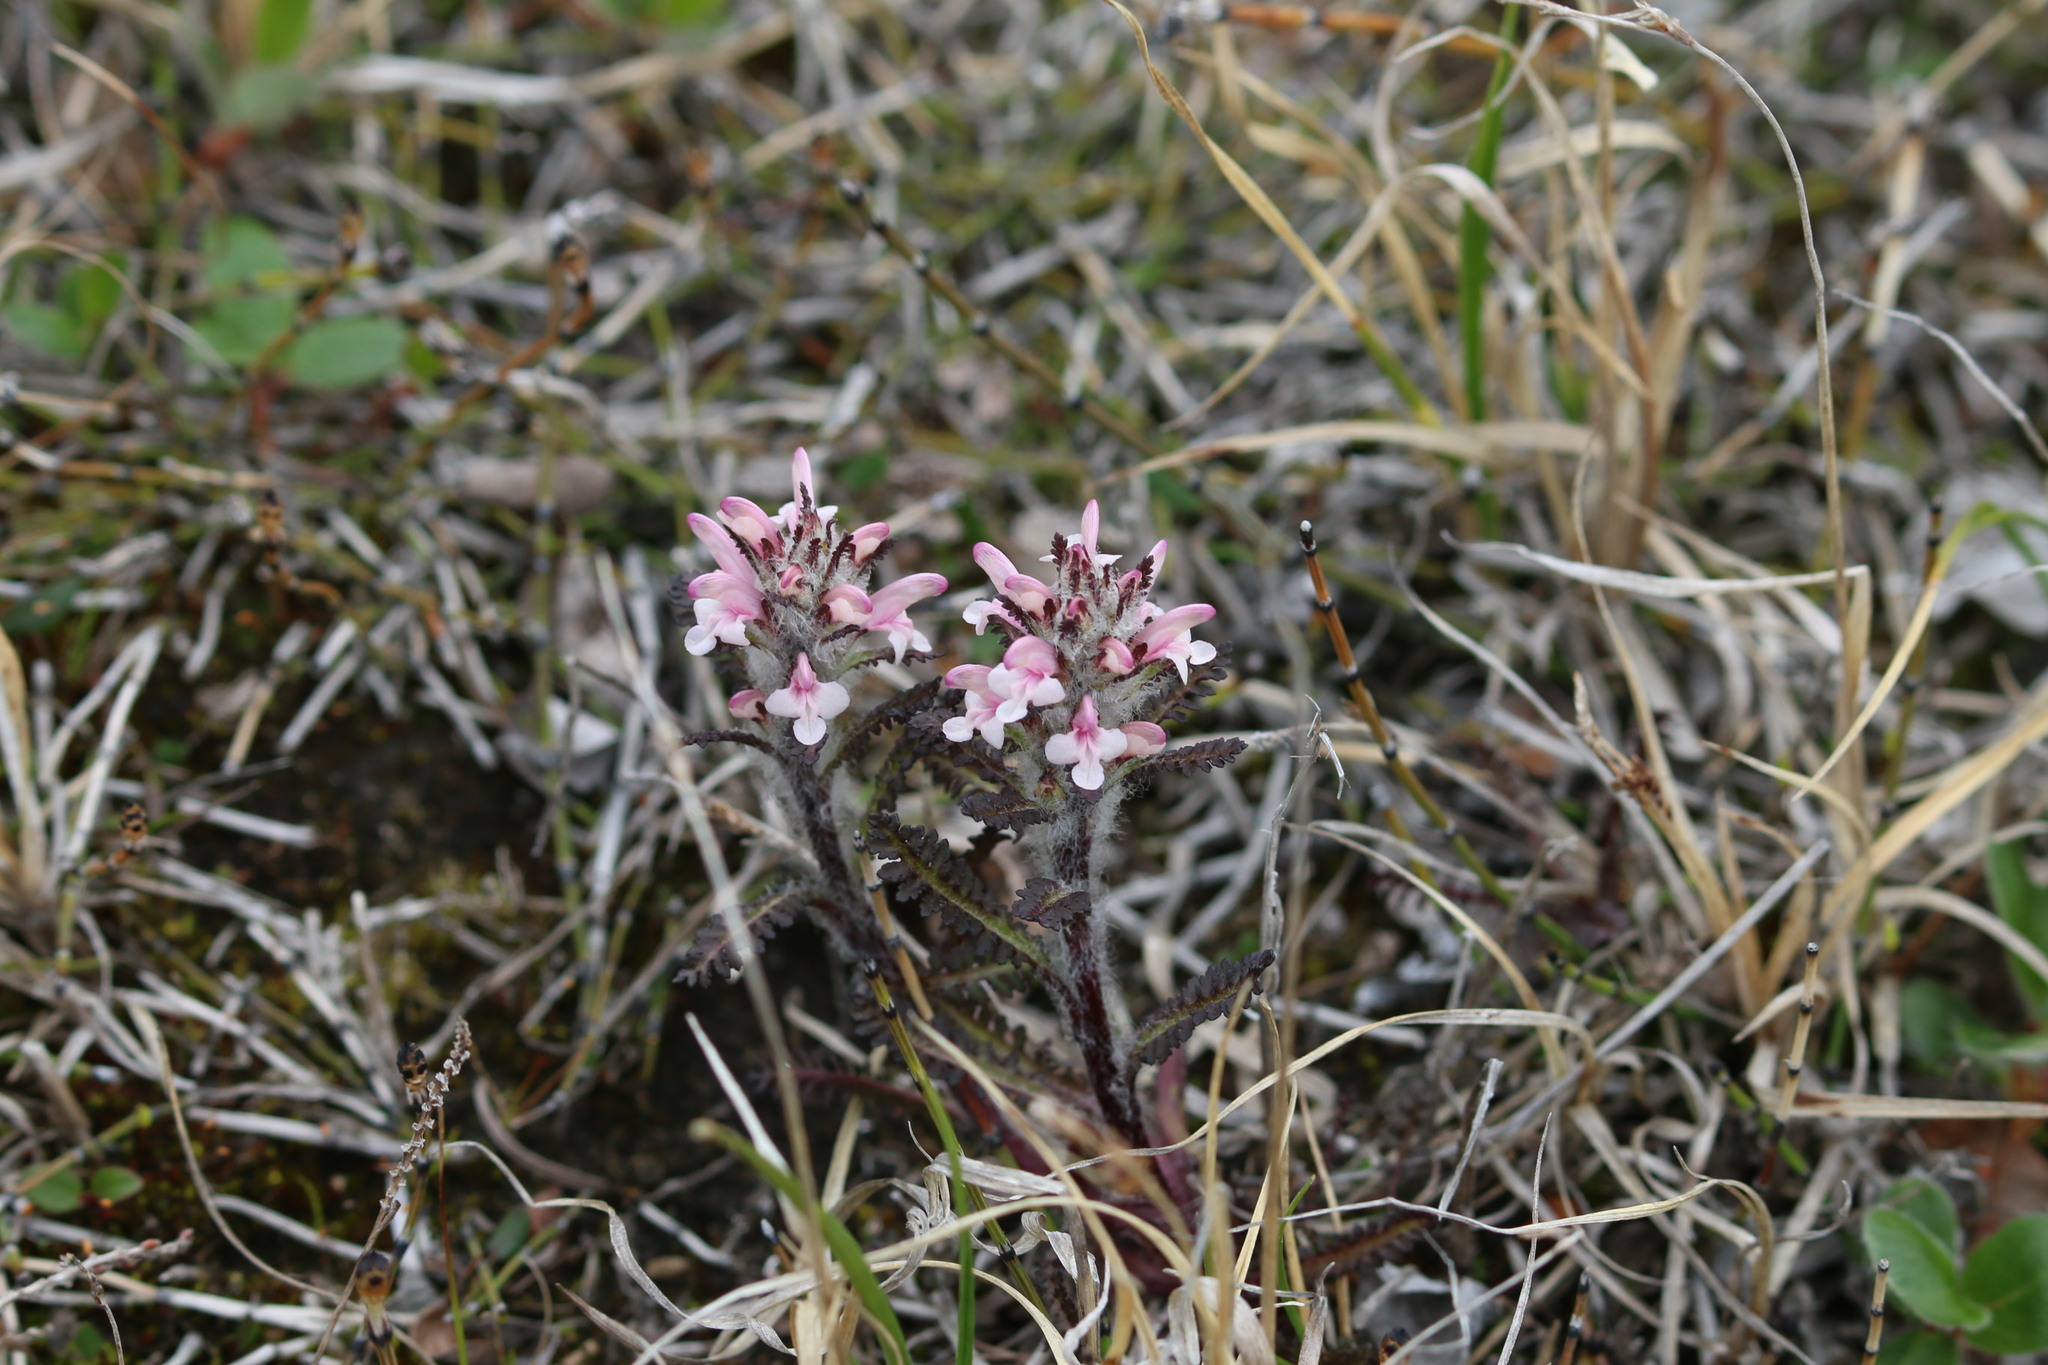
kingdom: Plantae
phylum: Tracheophyta
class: Magnoliopsida
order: Lamiales
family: Orobanchaceae
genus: Pedicularis
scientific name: Pedicularis hirsuta
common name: Hairy lousewort
